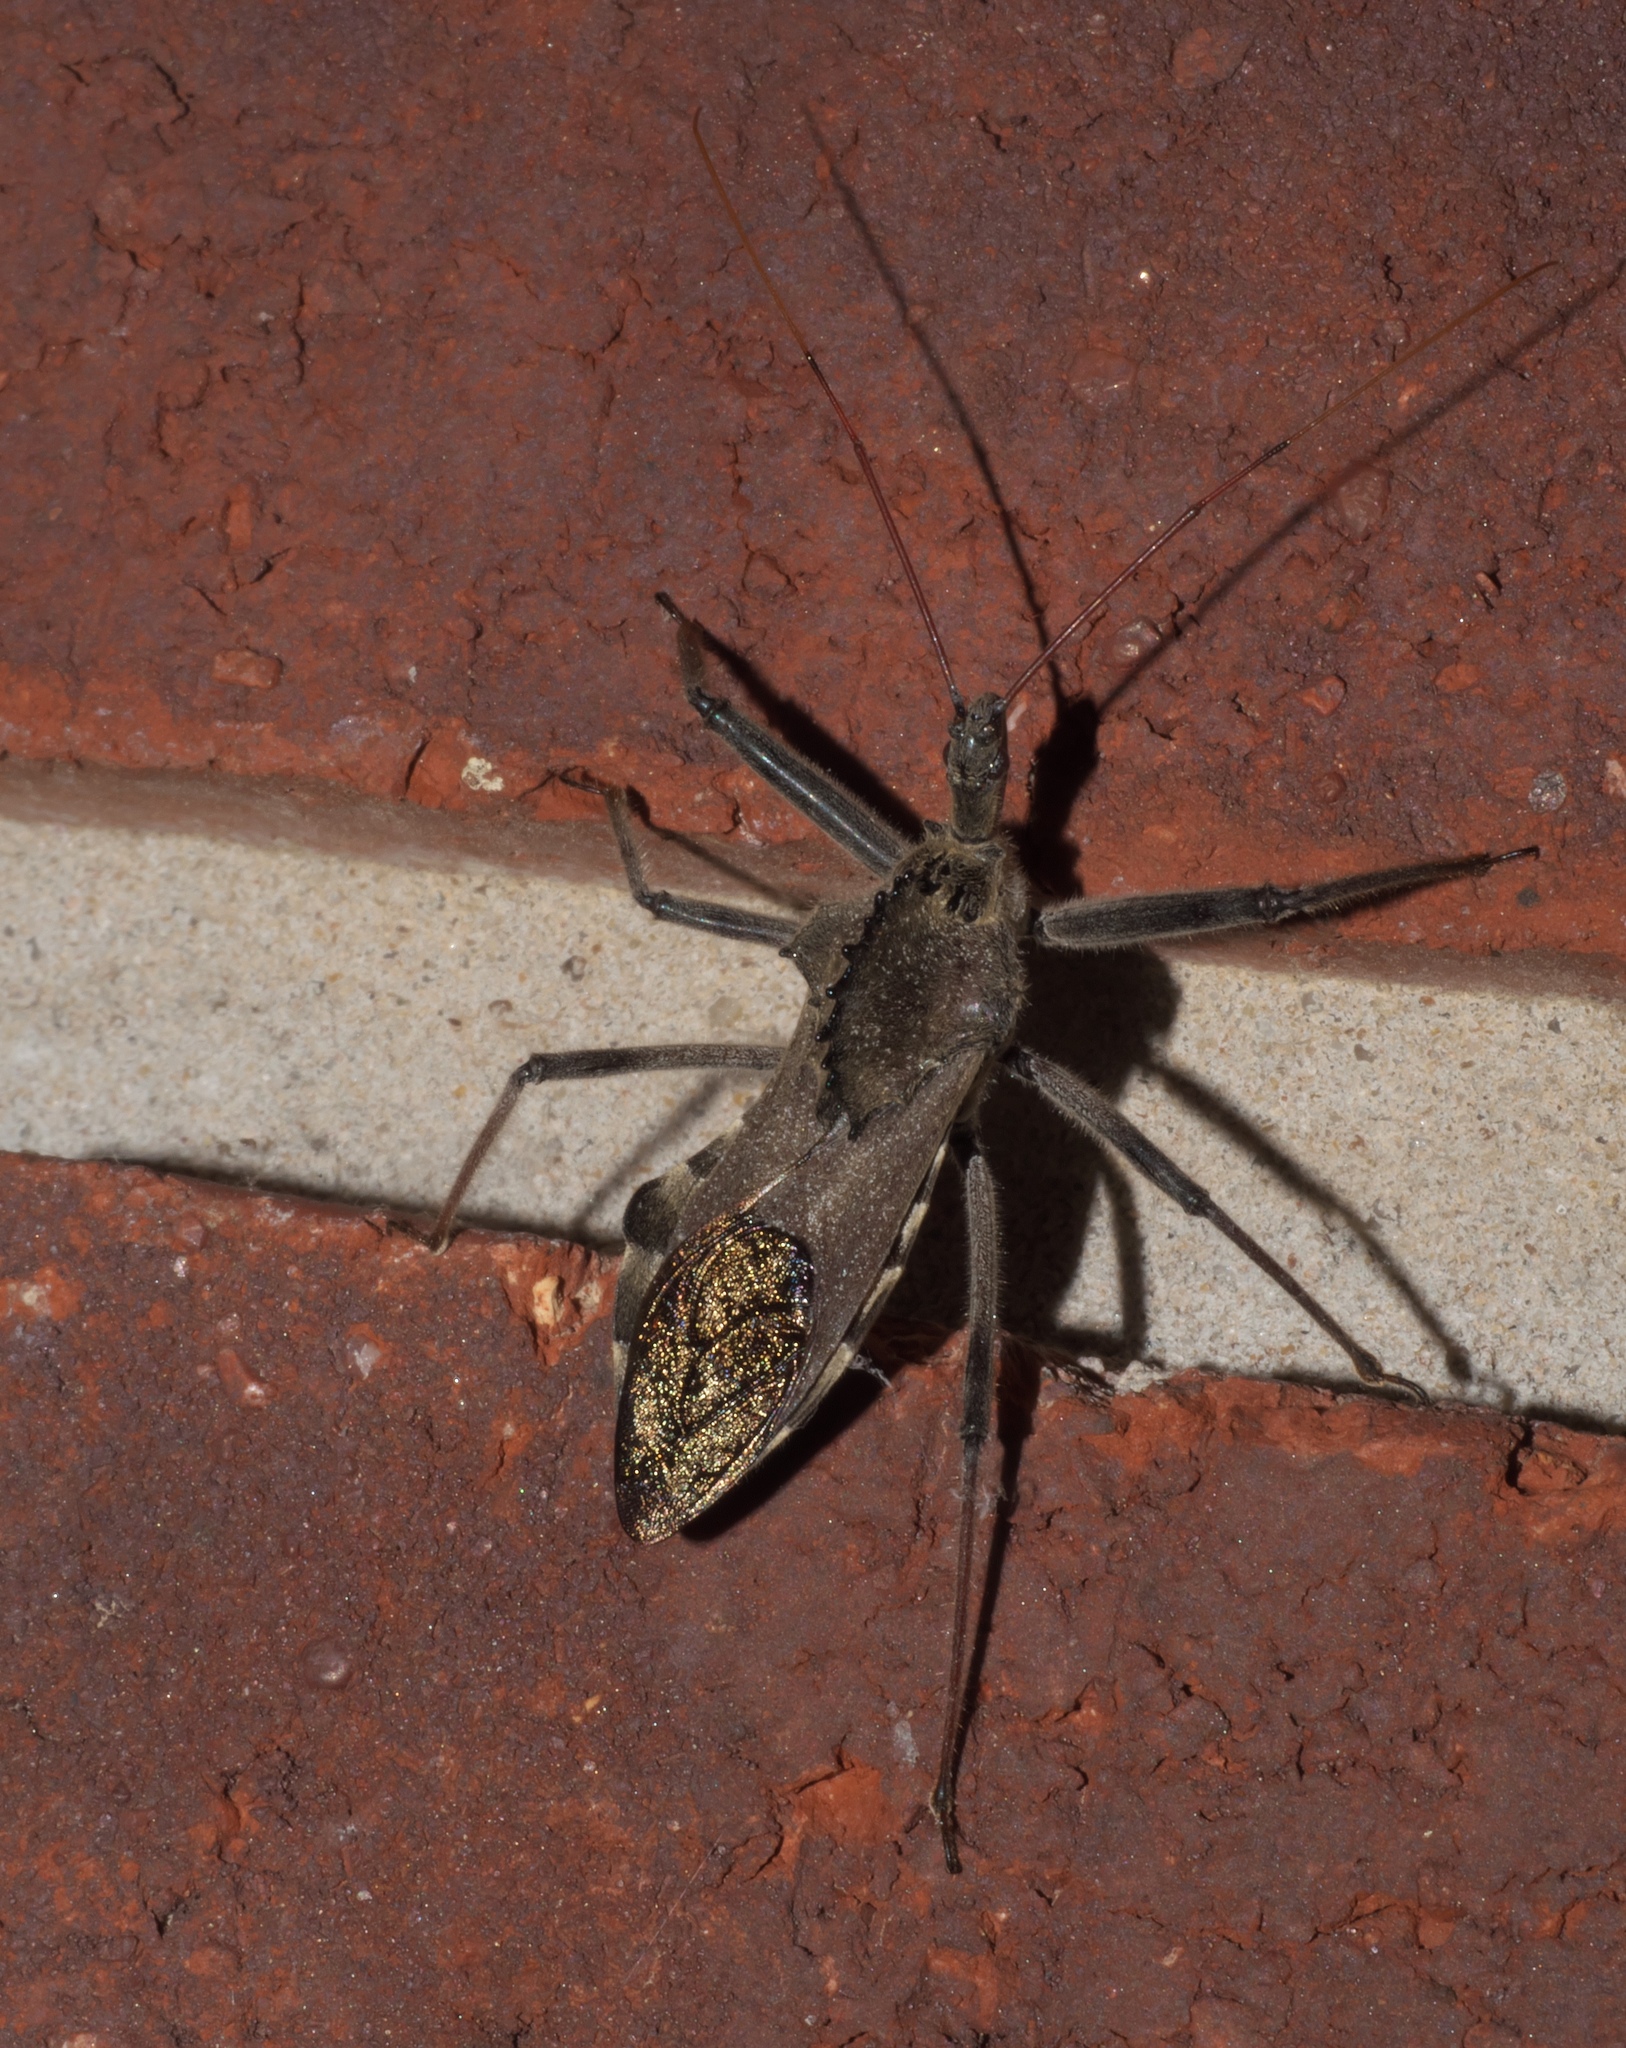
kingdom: Animalia
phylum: Arthropoda
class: Insecta
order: Hemiptera
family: Reduviidae
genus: Arilus
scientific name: Arilus cristatus
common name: North american wheel bug
